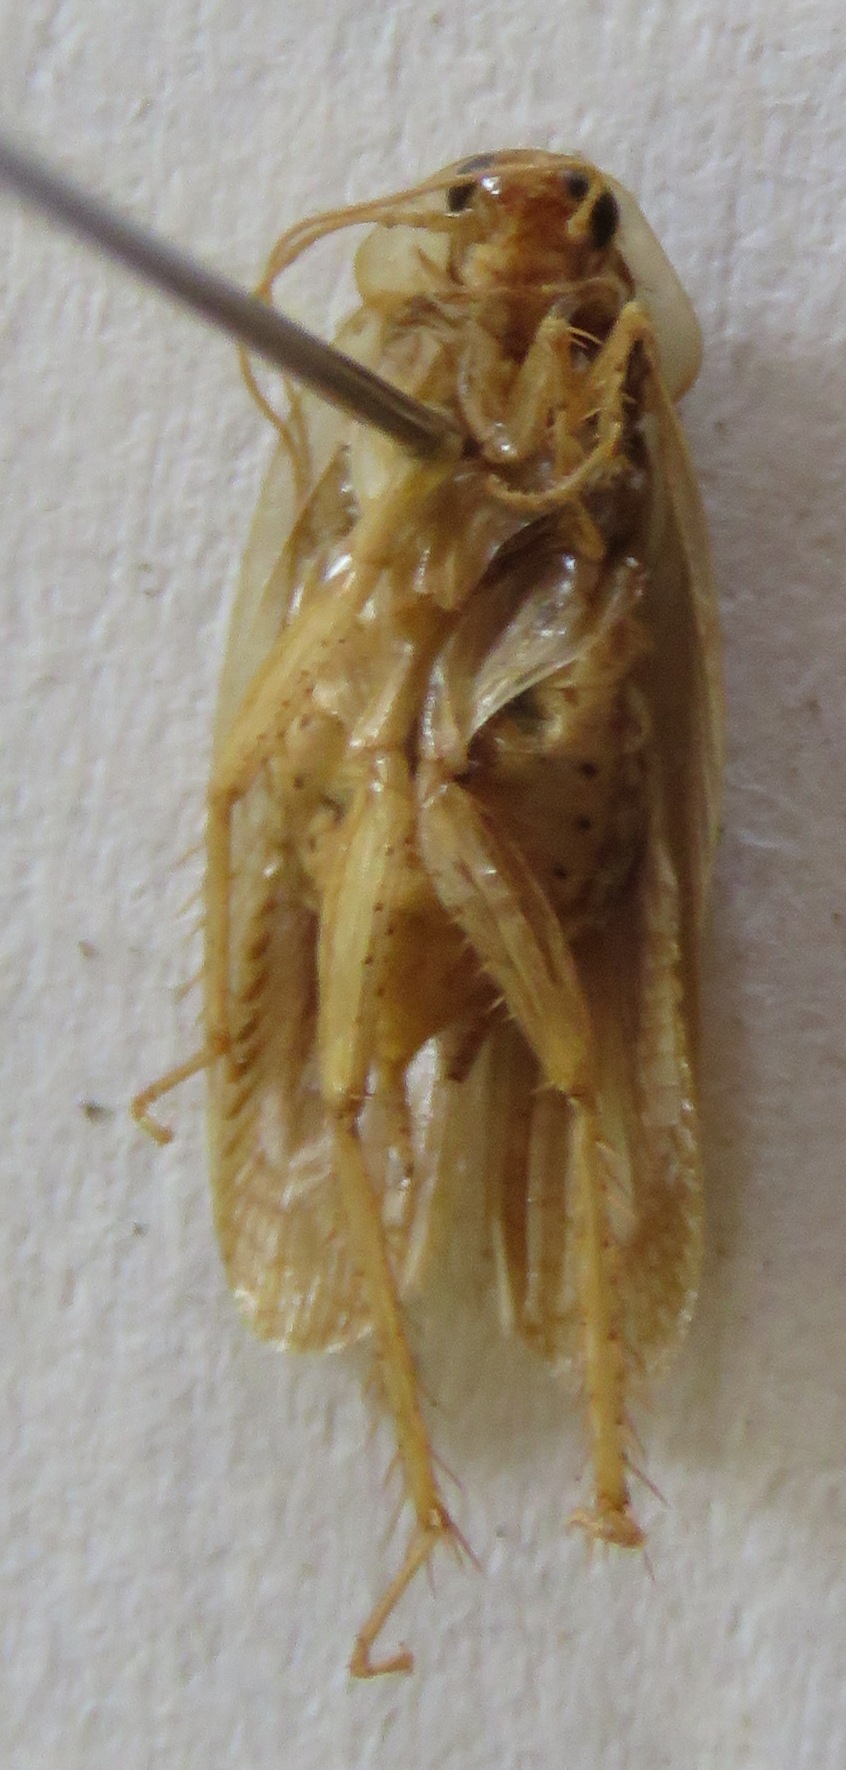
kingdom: Animalia
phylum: Arthropoda
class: Insecta
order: Blattodea
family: Ectobiidae
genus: Nahublattella
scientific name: Nahublattella fraterna
